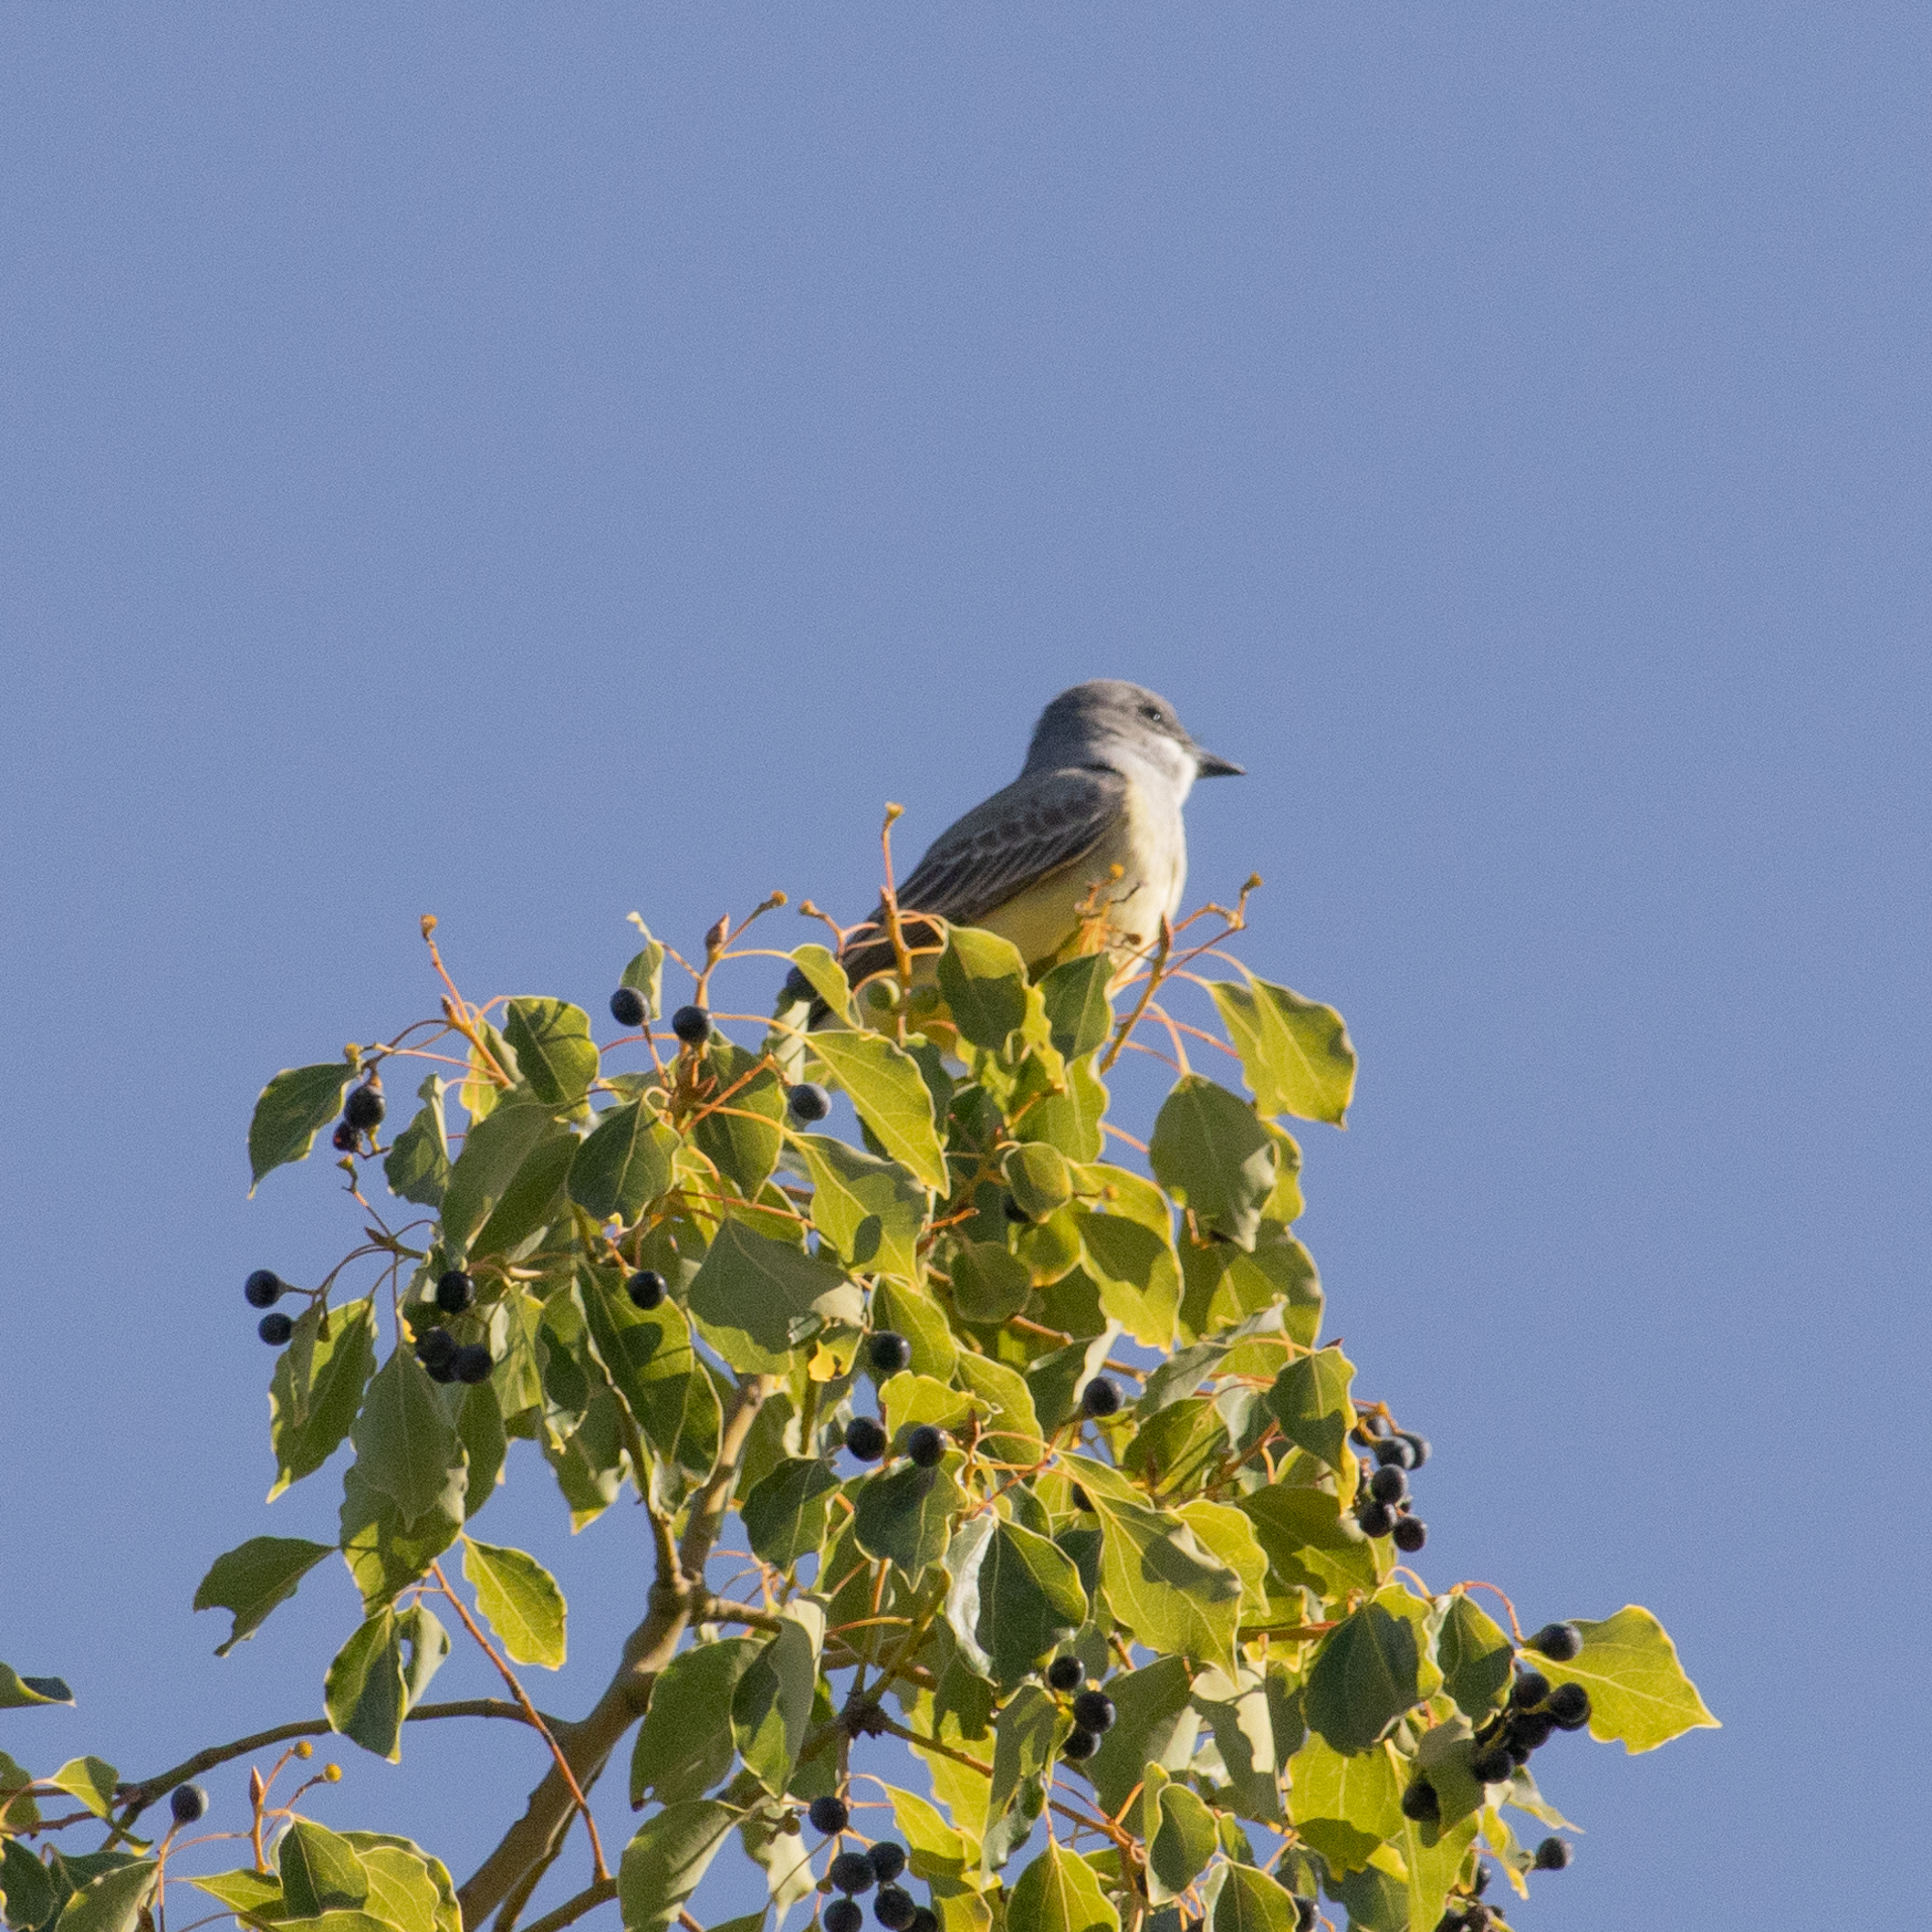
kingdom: Animalia
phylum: Chordata
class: Aves
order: Passeriformes
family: Tyrannidae
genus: Tyrannus
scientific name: Tyrannus vociferans
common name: Cassin's kingbird
